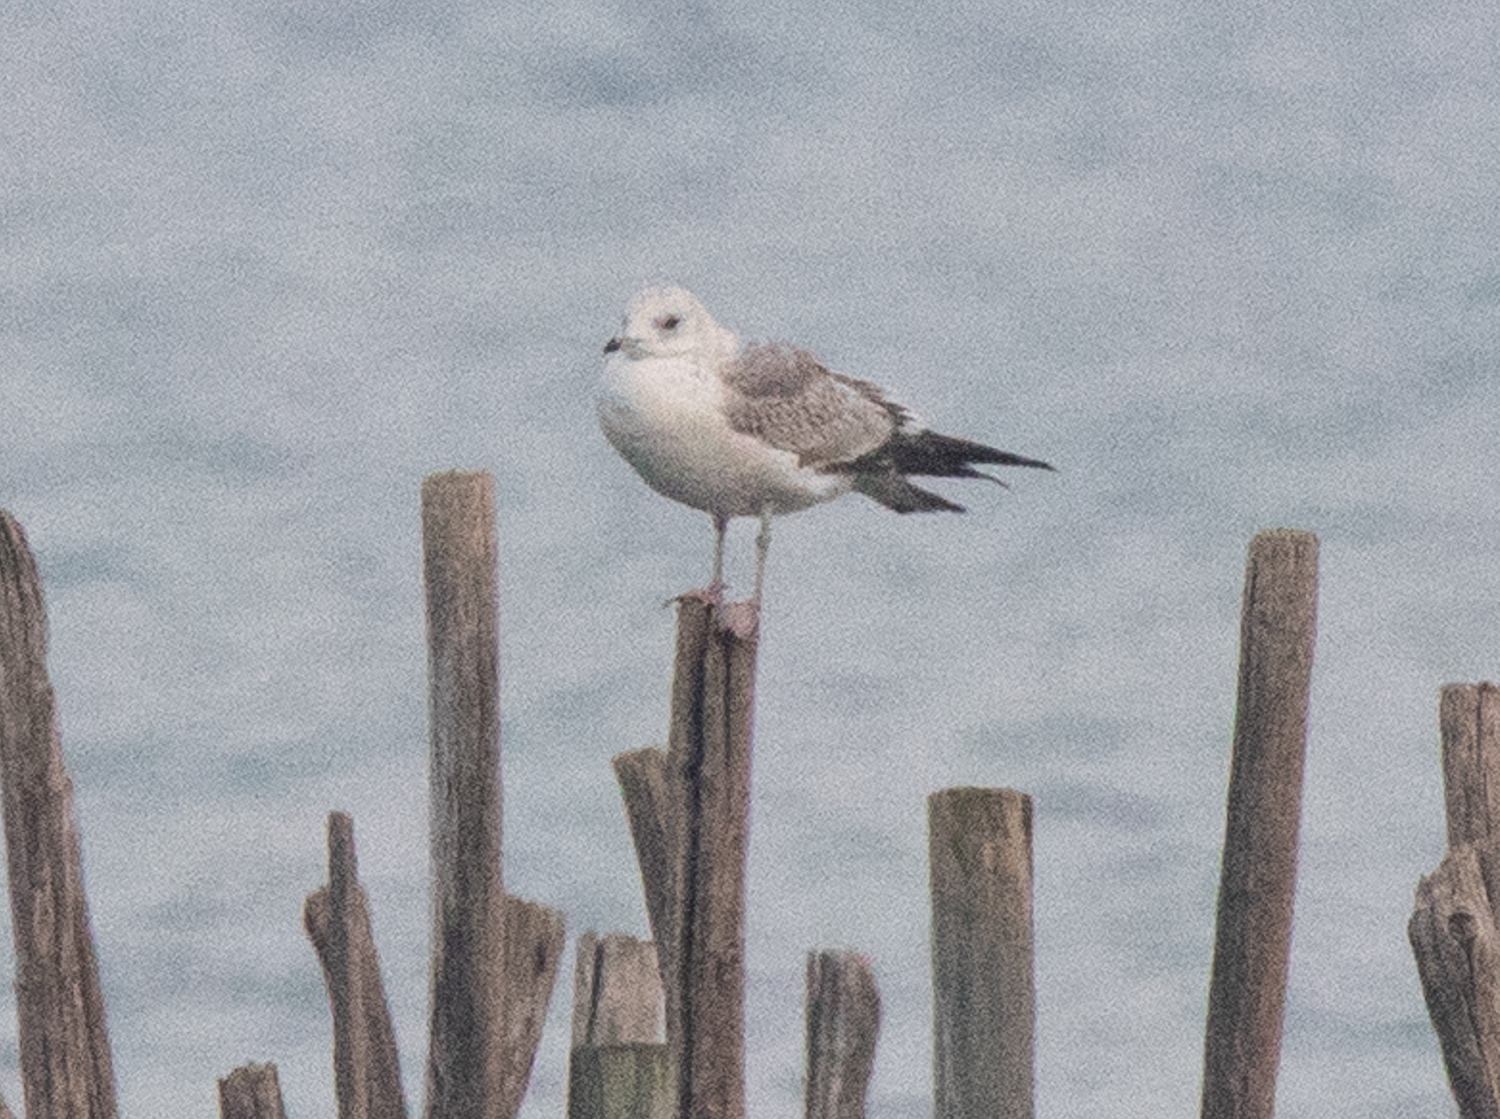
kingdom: Animalia
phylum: Chordata
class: Aves
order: Charadriiformes
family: Laridae
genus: Larus
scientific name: Larus canus
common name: Mew gull
